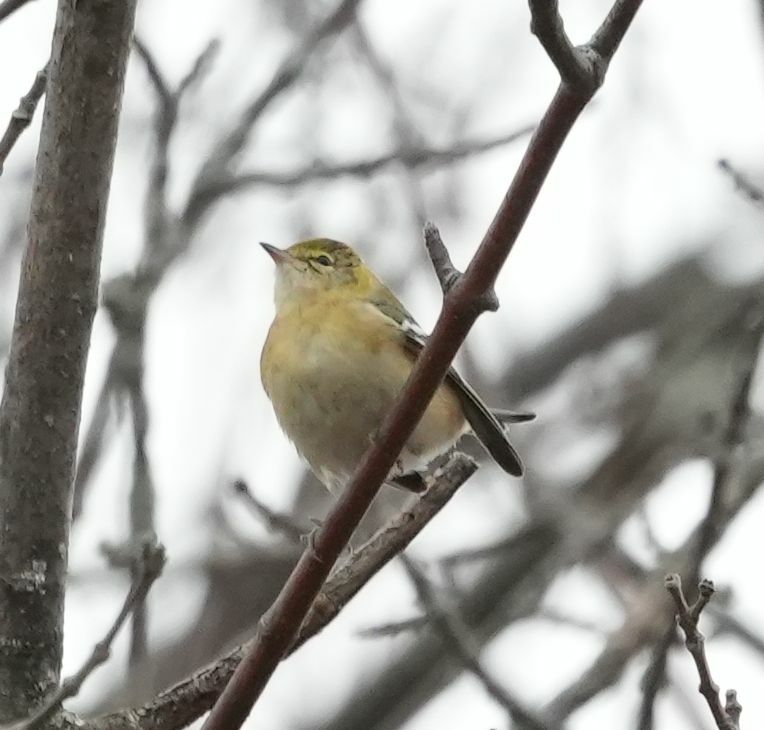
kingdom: Animalia
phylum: Chordata
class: Aves
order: Passeriformes
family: Parulidae
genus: Setophaga
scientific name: Setophaga castanea
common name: Bay-breasted warbler
